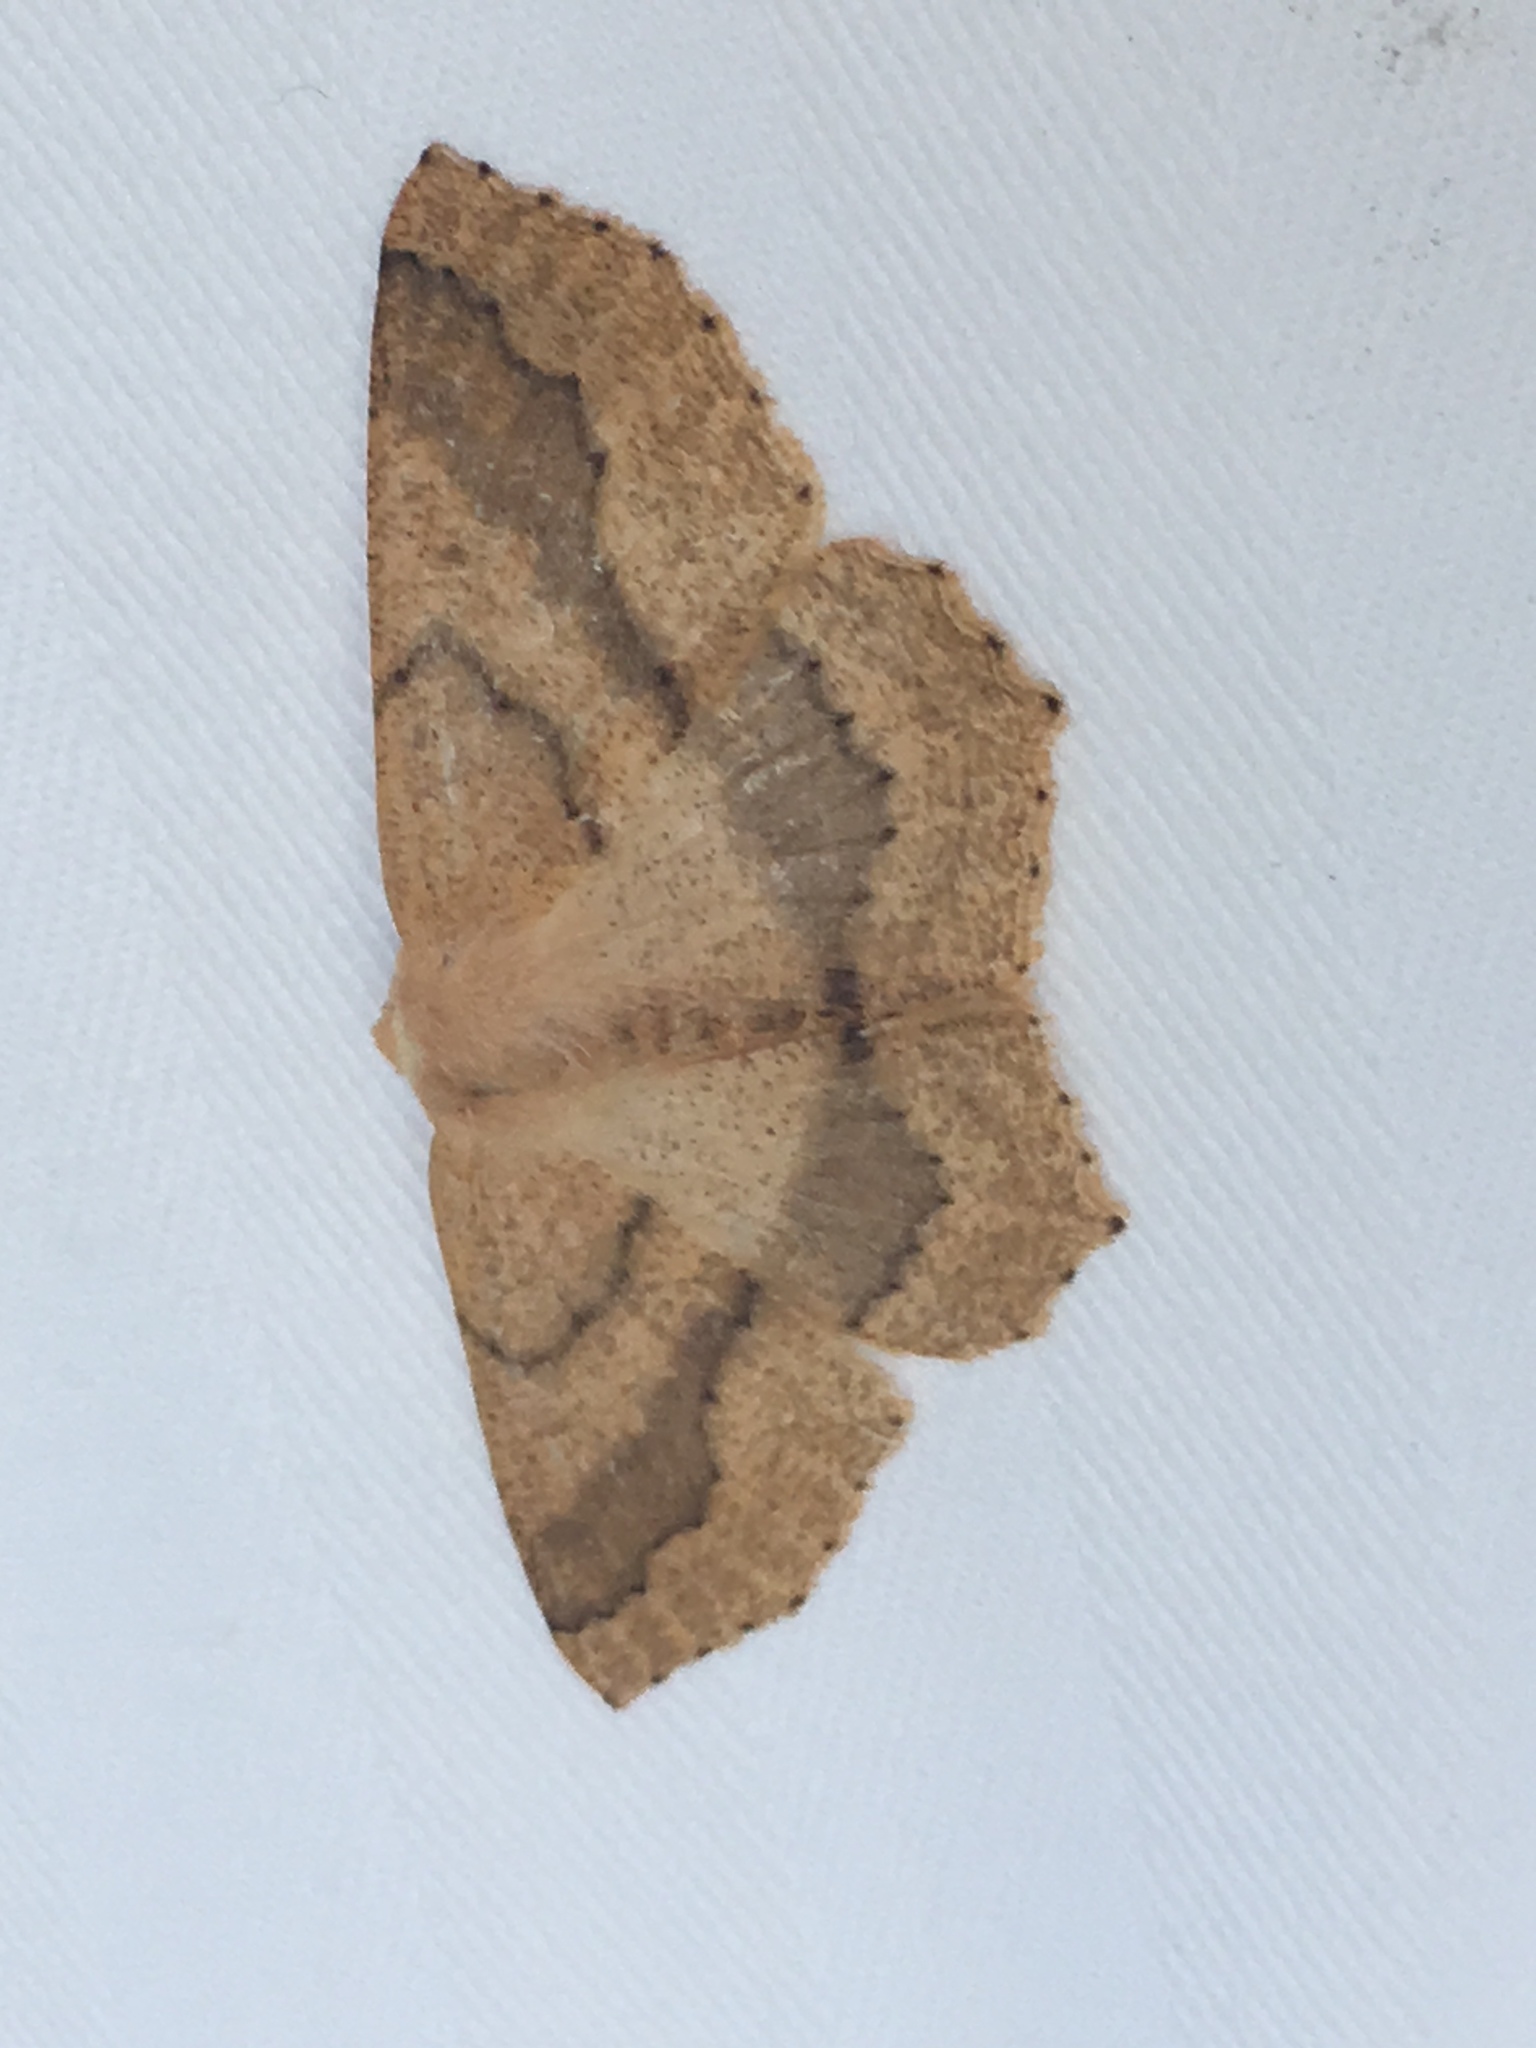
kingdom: Animalia
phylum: Arthropoda
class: Insecta
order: Lepidoptera
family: Geometridae
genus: Sabulodes
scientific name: Sabulodes aegrotata
